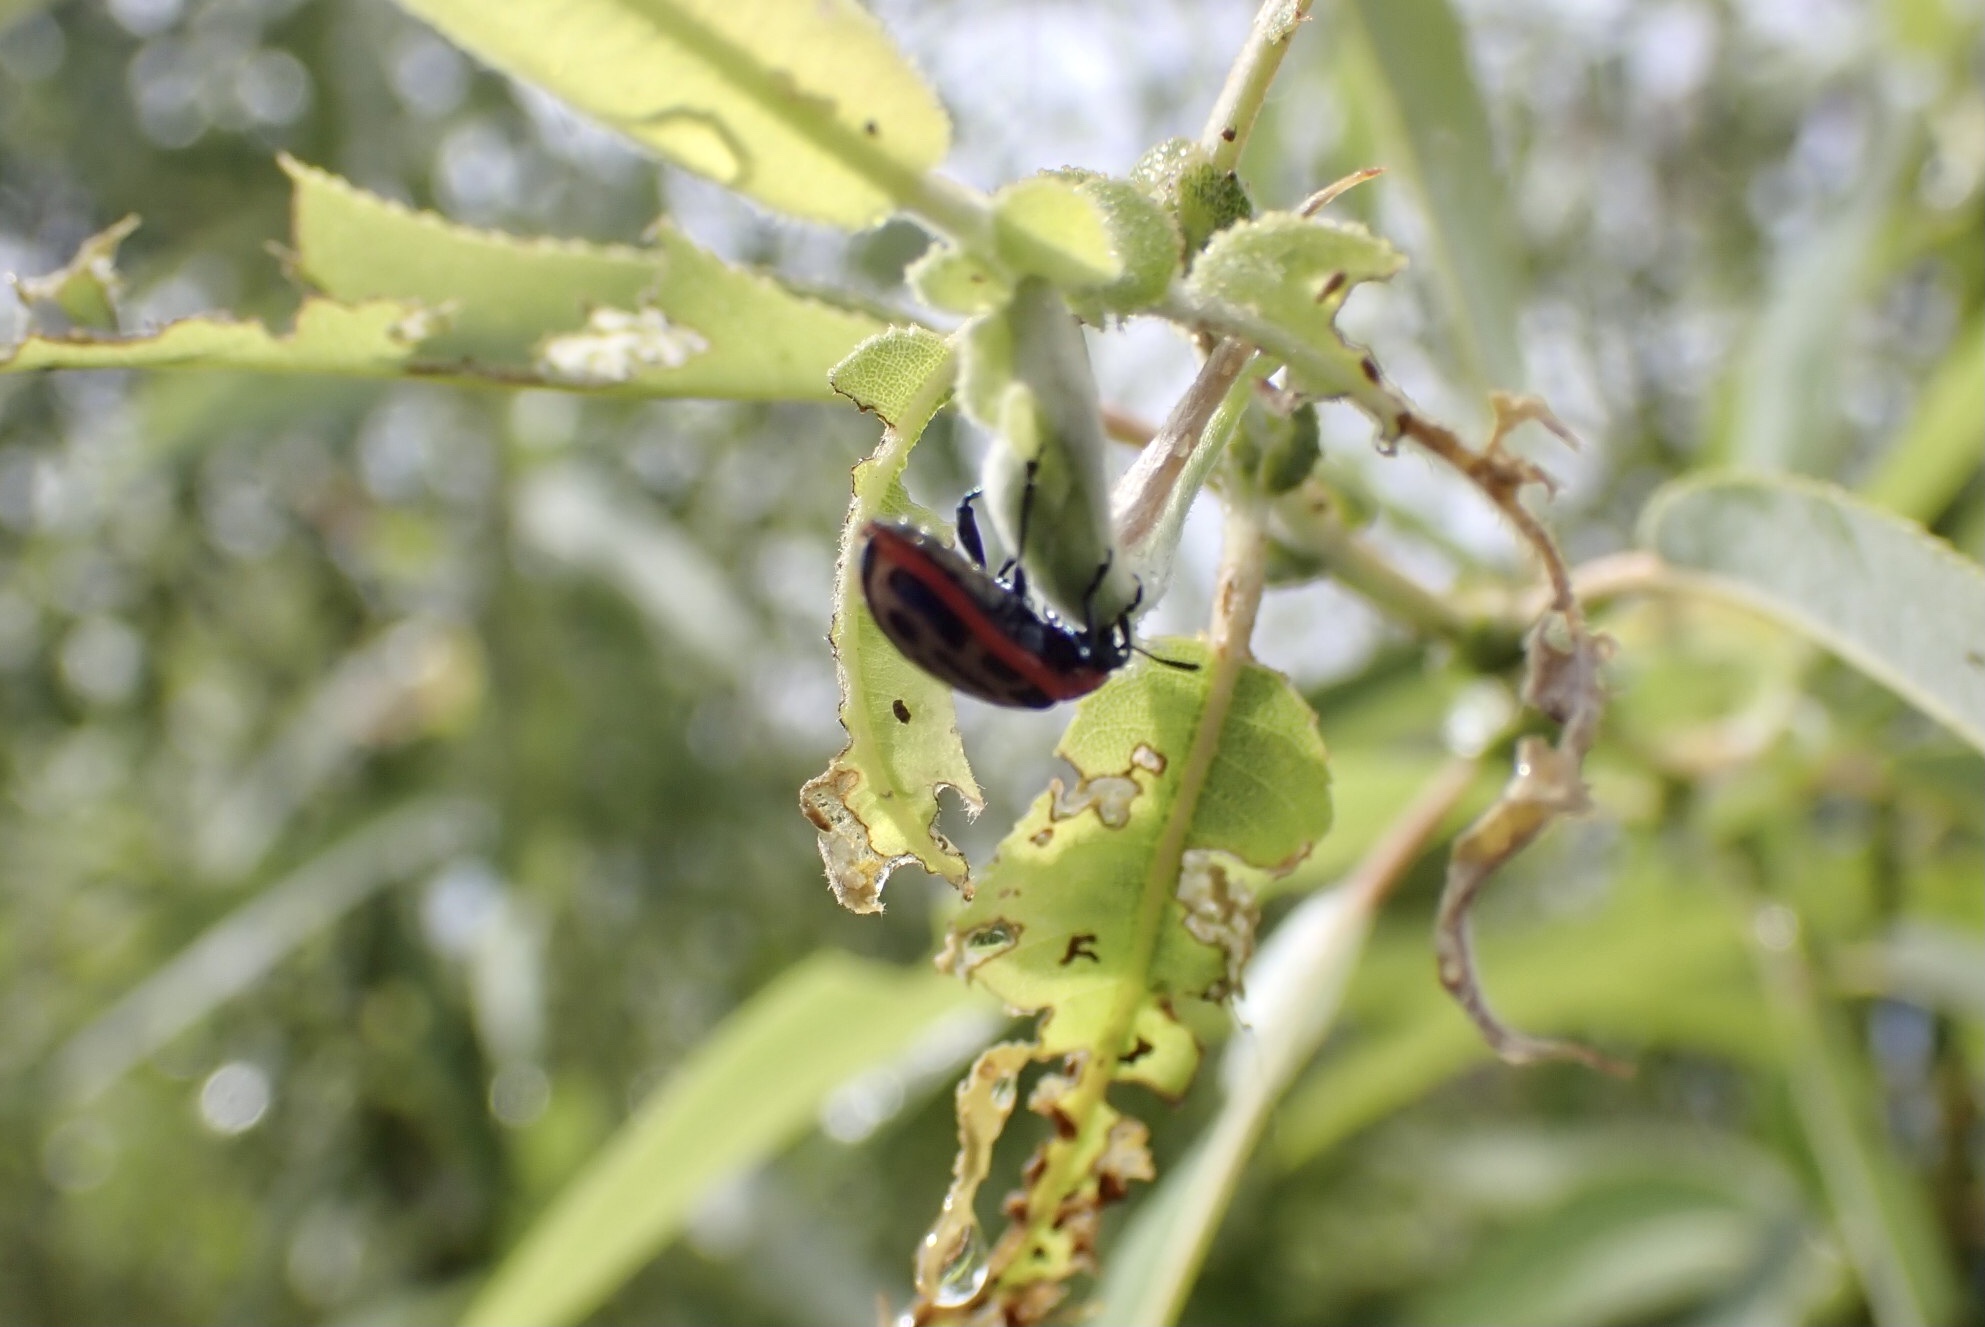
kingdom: Animalia
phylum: Arthropoda
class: Insecta
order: Coleoptera
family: Chrysomelidae
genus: Aethiopocassis
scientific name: Aethiopocassis scripta
